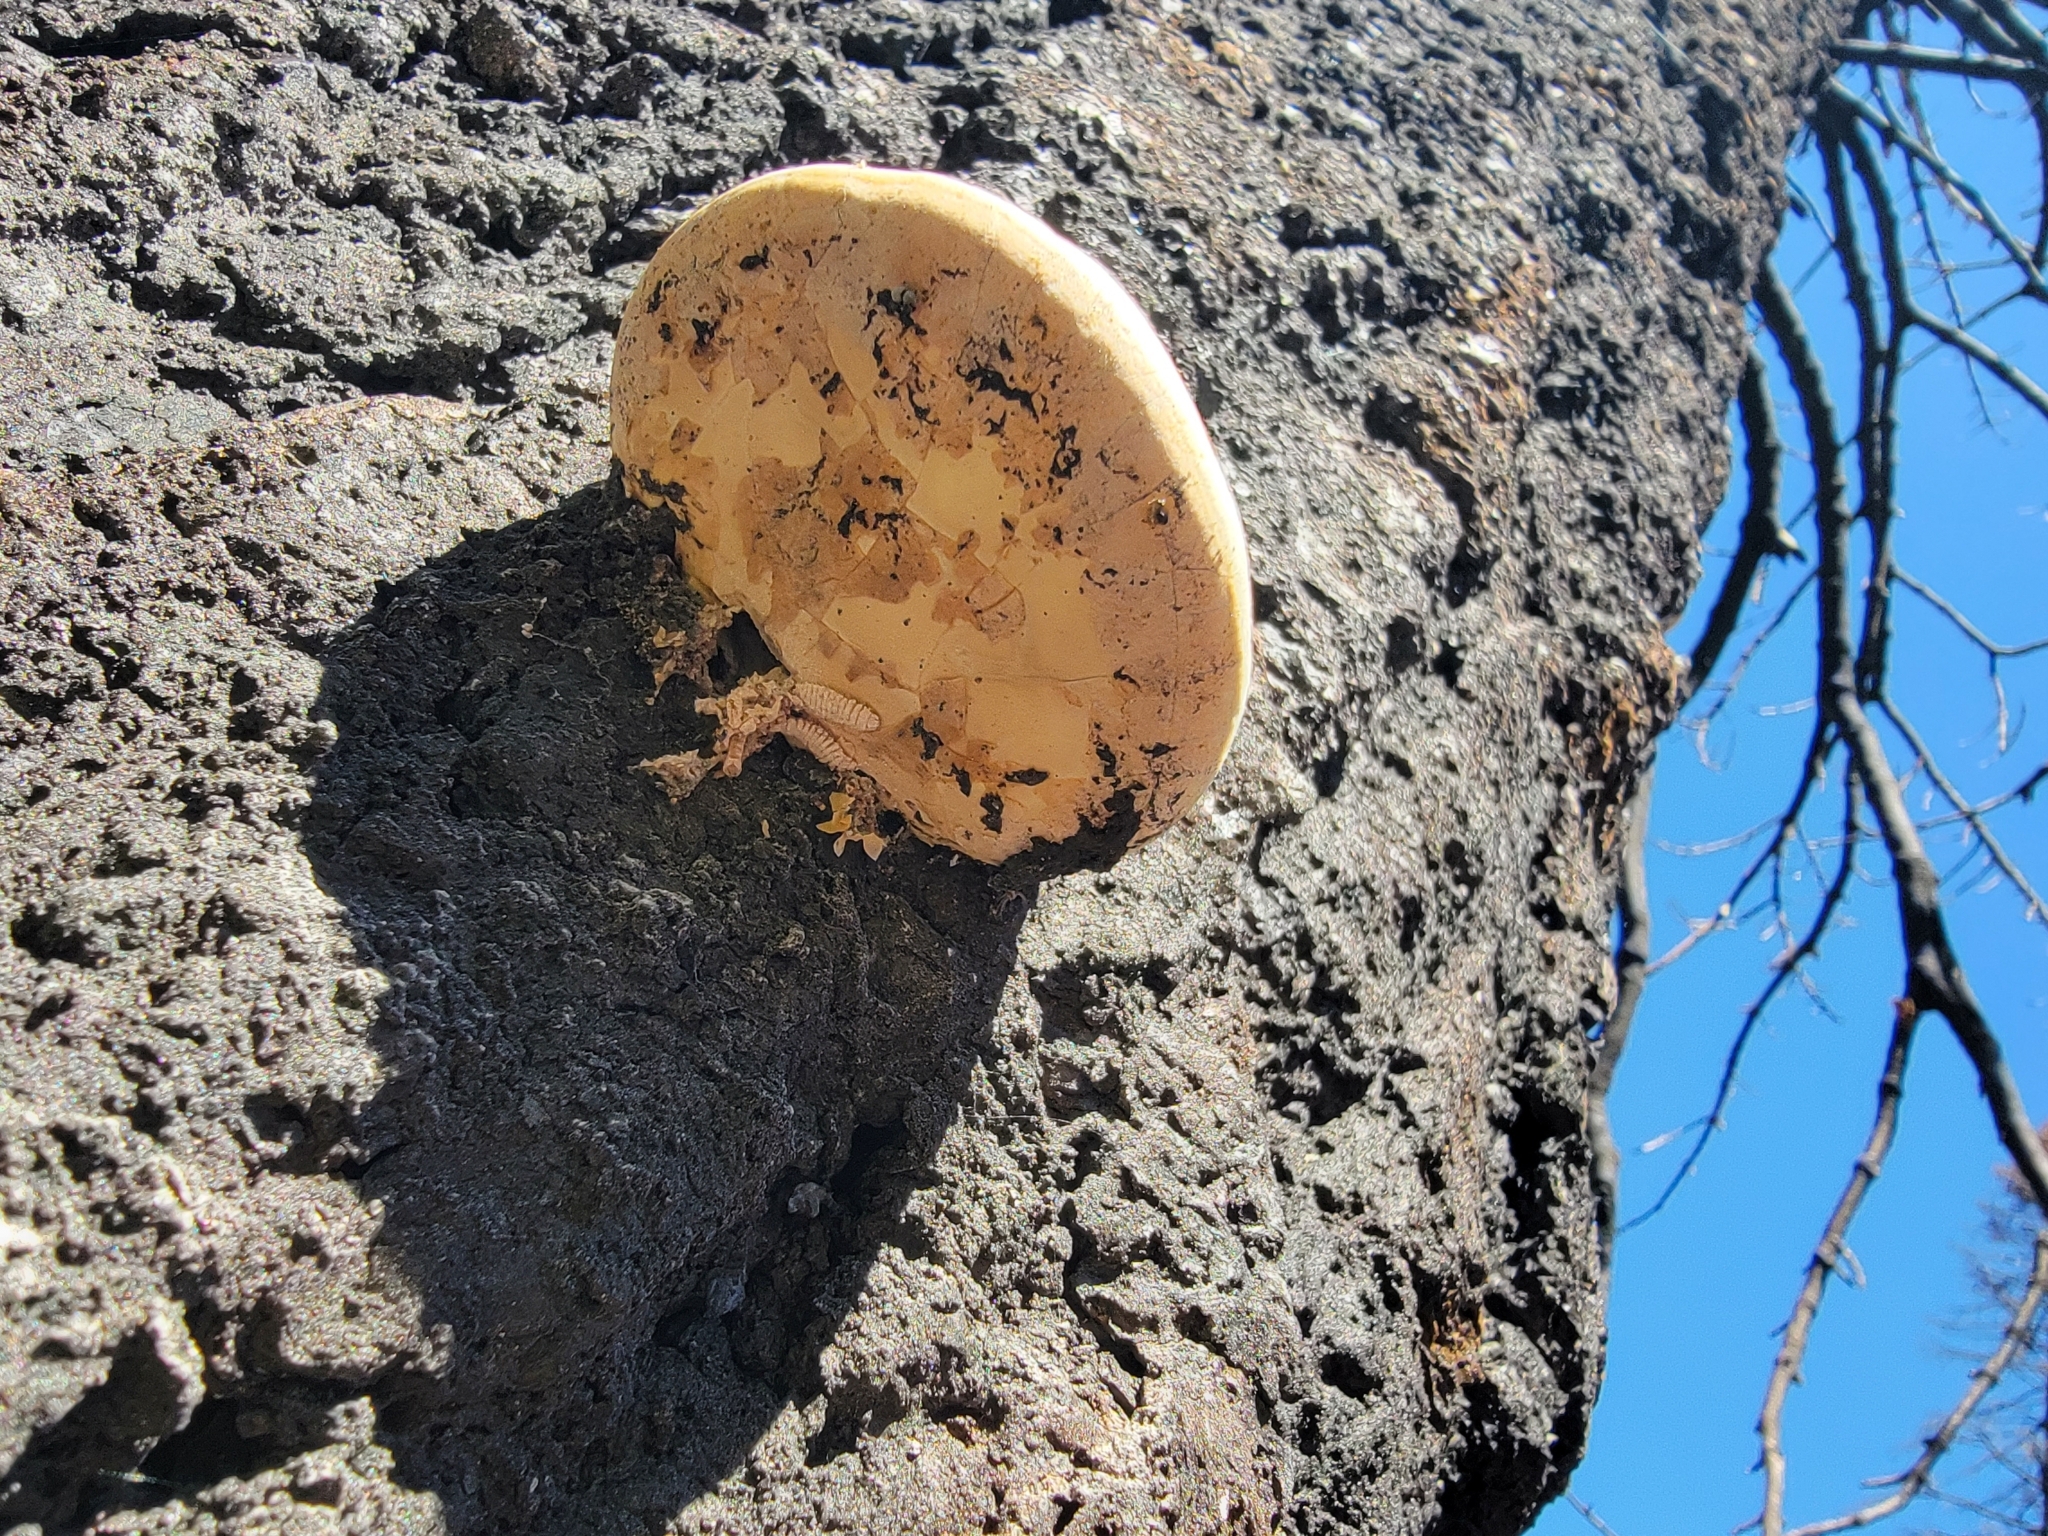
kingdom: Fungi
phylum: Basidiomycota
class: Agaricomycetes
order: Polyporales
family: Polyporaceae
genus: Cryptoporus
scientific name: Cryptoporus volvatus
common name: Veiled polypore
